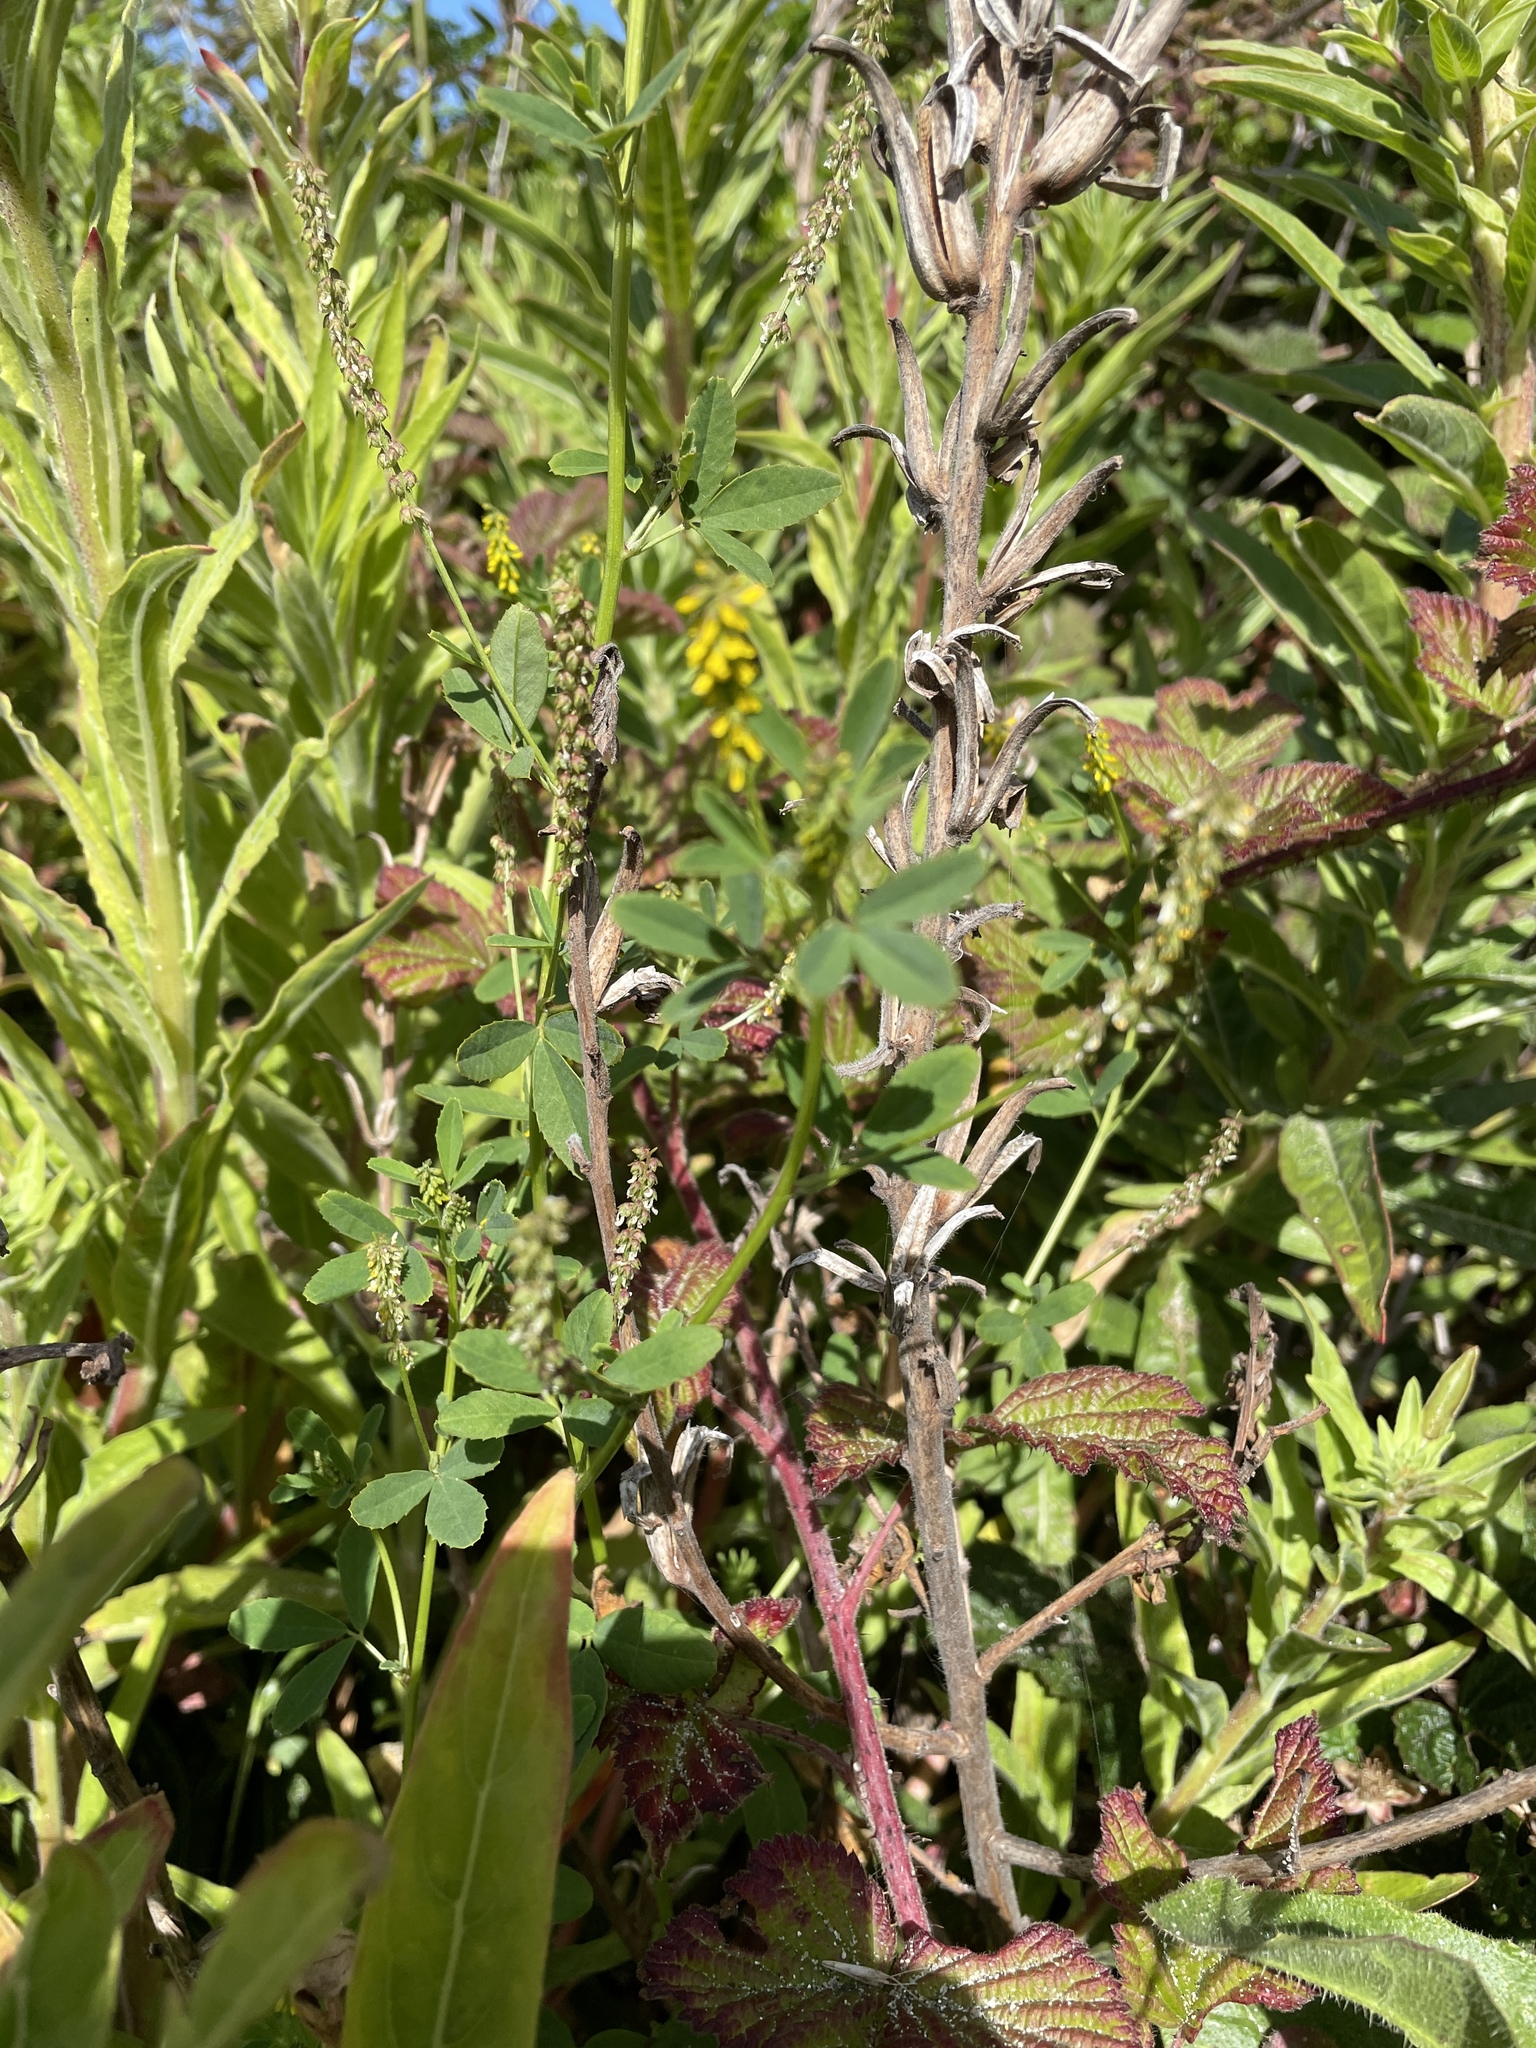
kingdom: Plantae
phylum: Tracheophyta
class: Magnoliopsida
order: Fabales
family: Fabaceae
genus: Melilotus
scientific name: Melilotus indicus
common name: Small melilot
